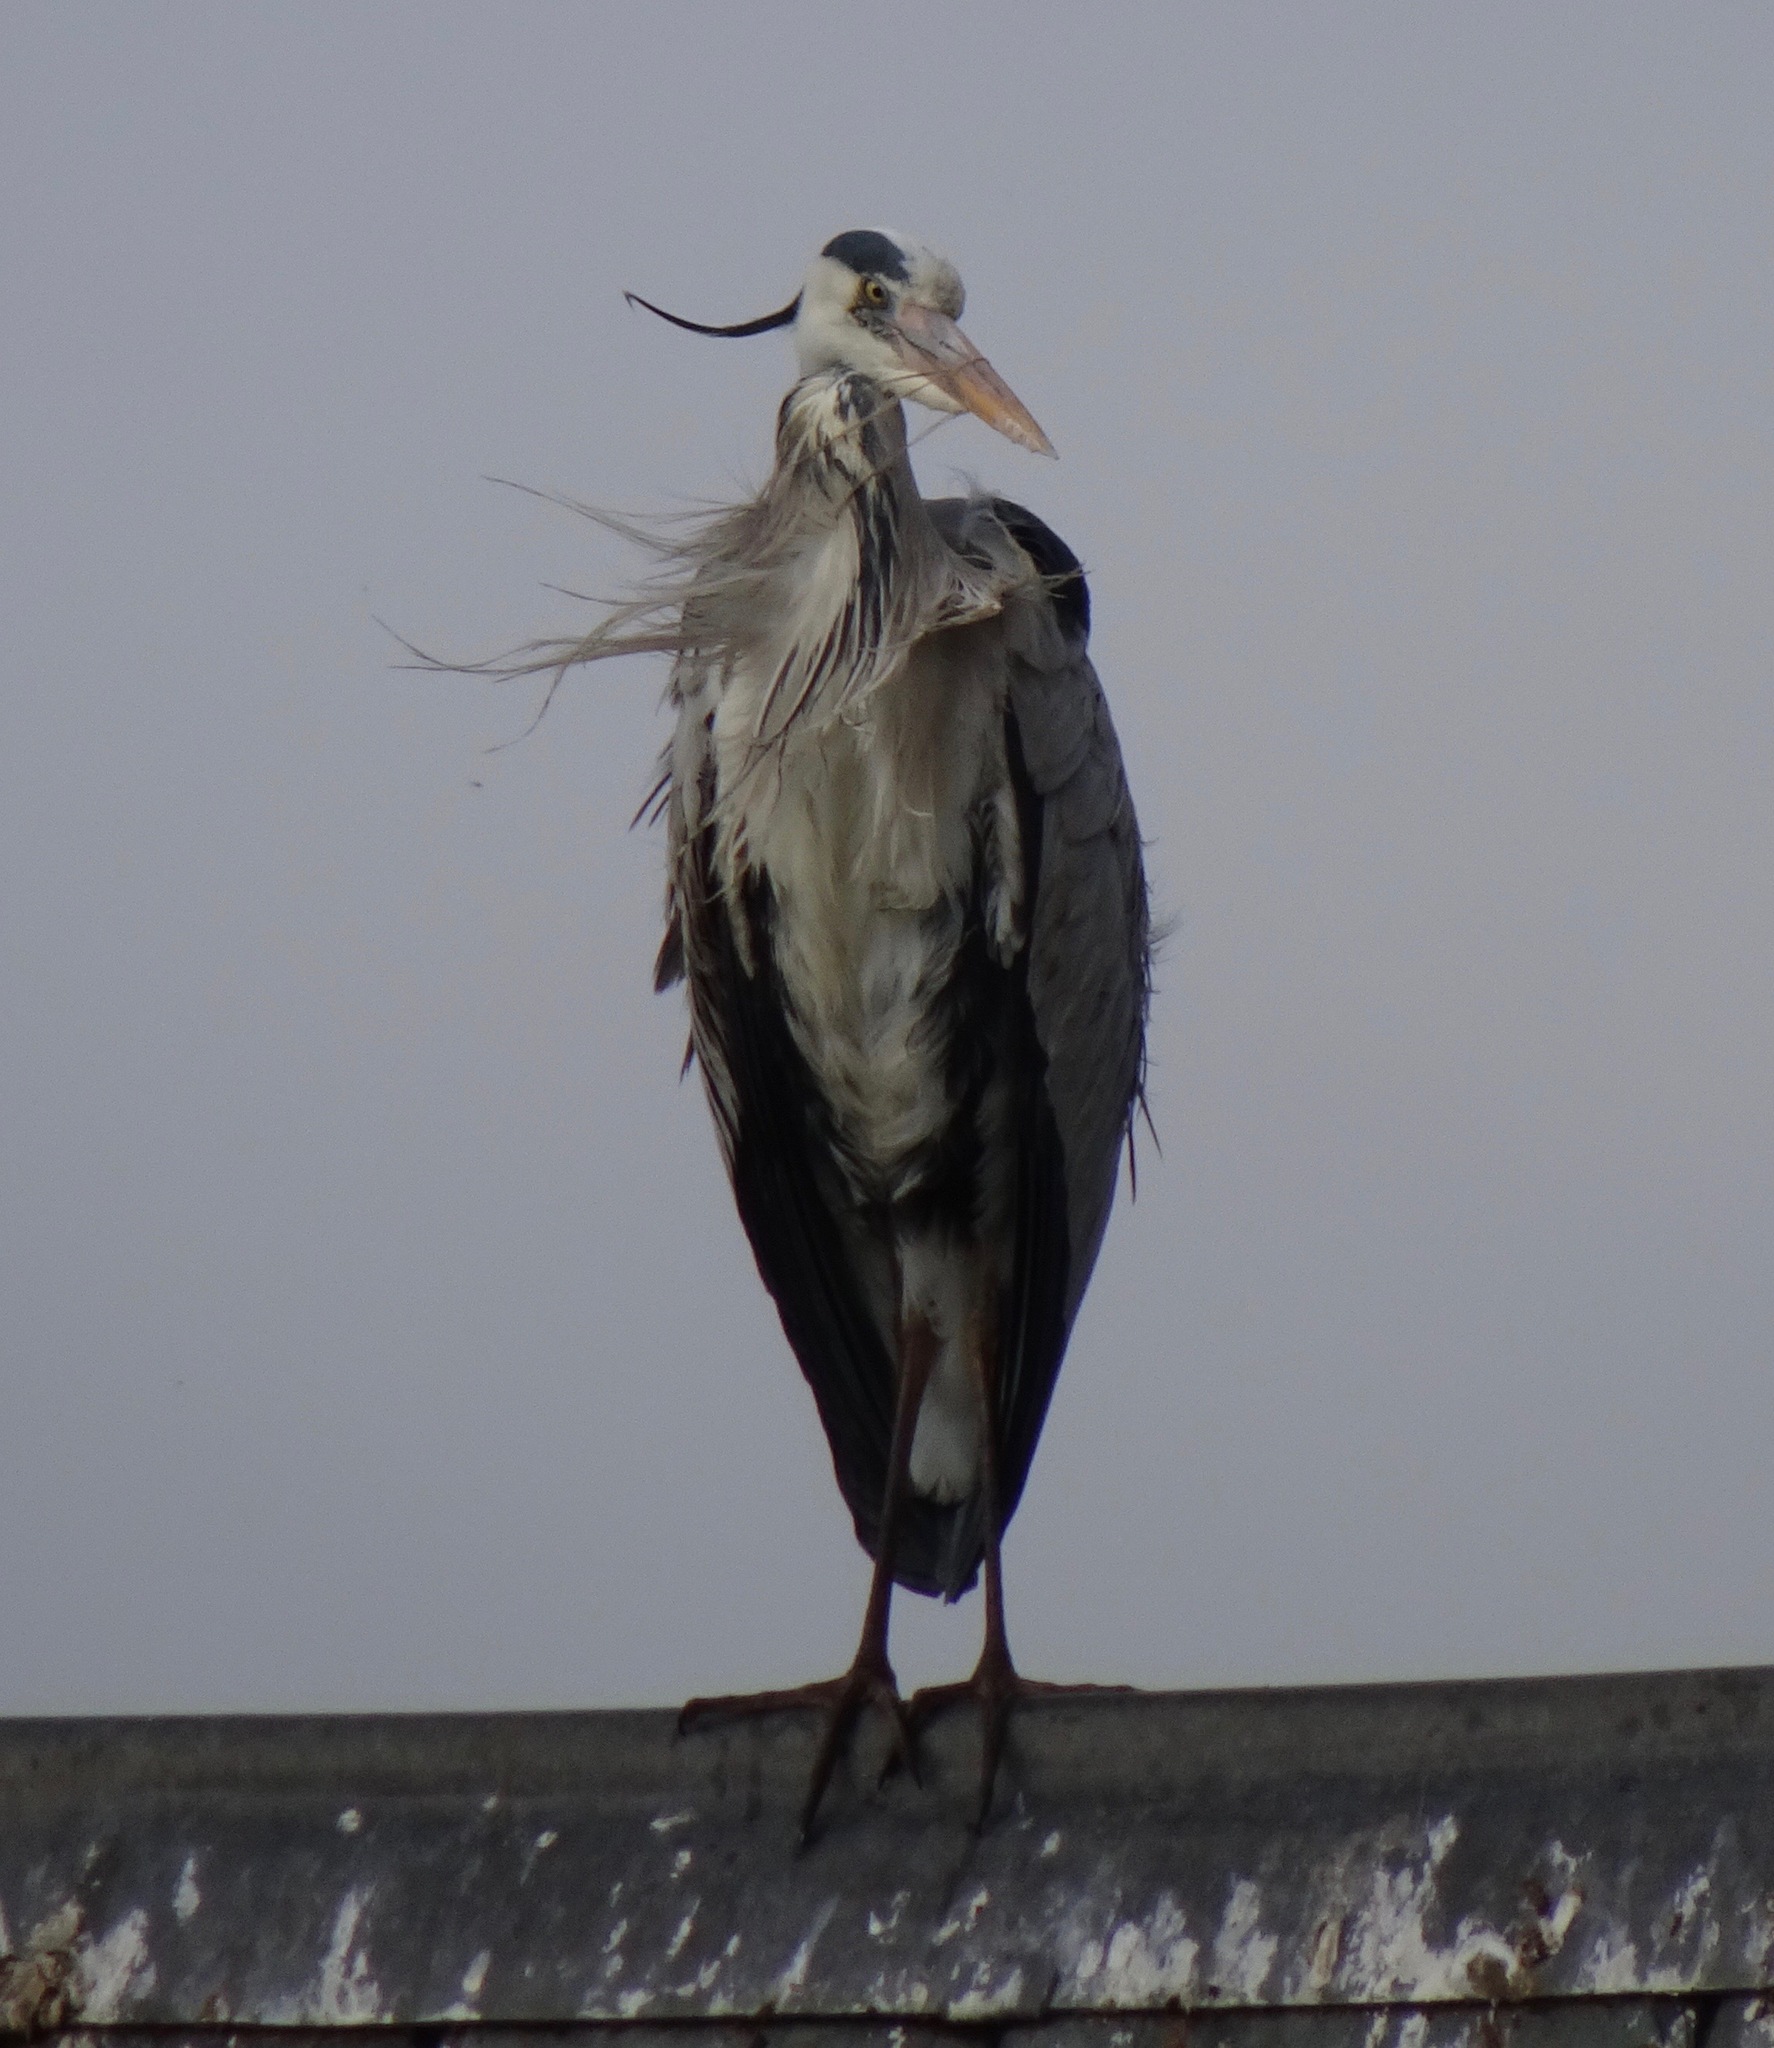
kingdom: Animalia
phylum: Chordata
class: Aves
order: Pelecaniformes
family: Ardeidae
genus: Ardea
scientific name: Ardea cinerea
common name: Grey heron
